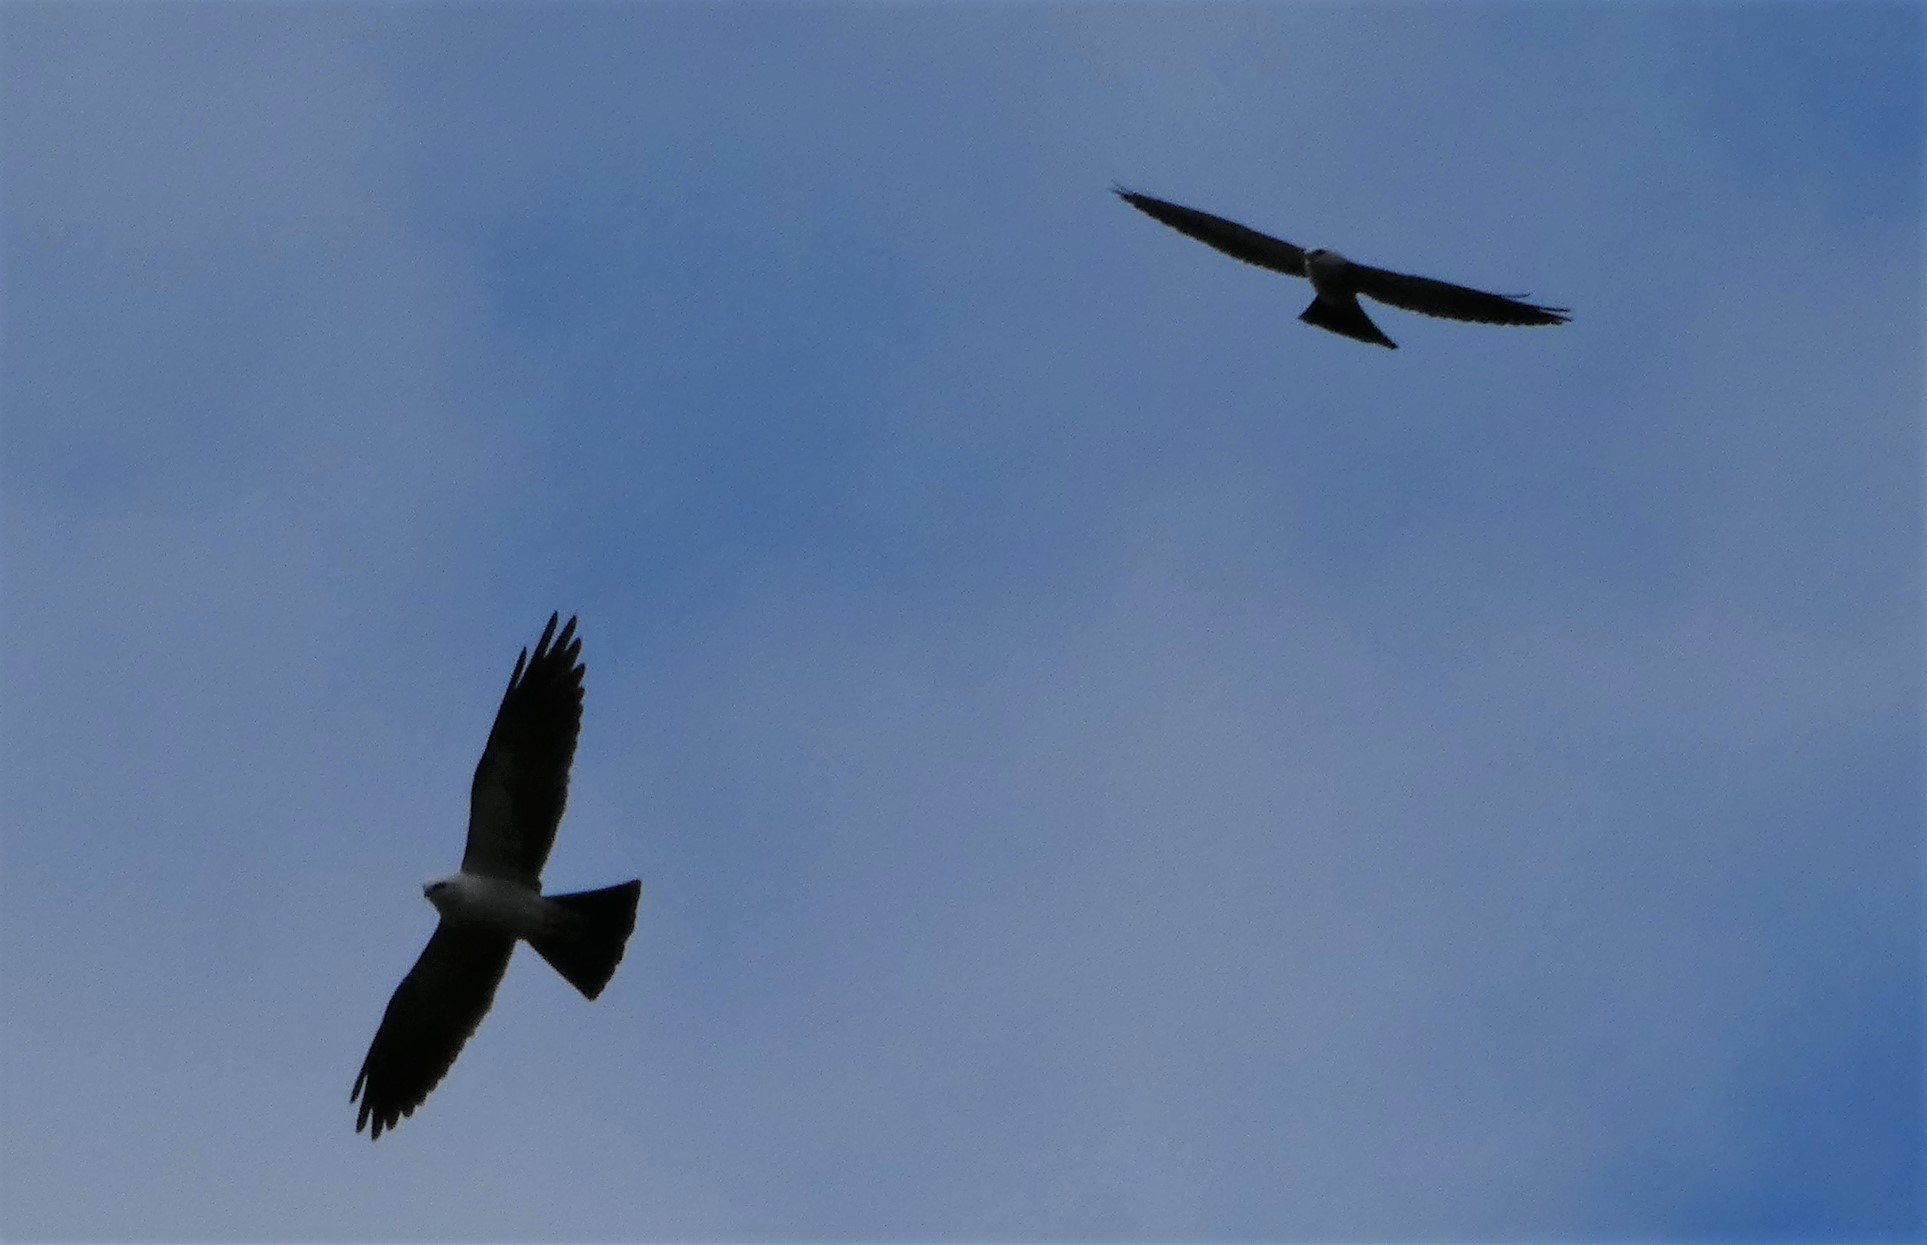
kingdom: Animalia
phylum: Chordata
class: Aves
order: Accipitriformes
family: Accipitridae
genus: Ictinia
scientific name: Ictinia mississippiensis
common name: Mississippi kite
